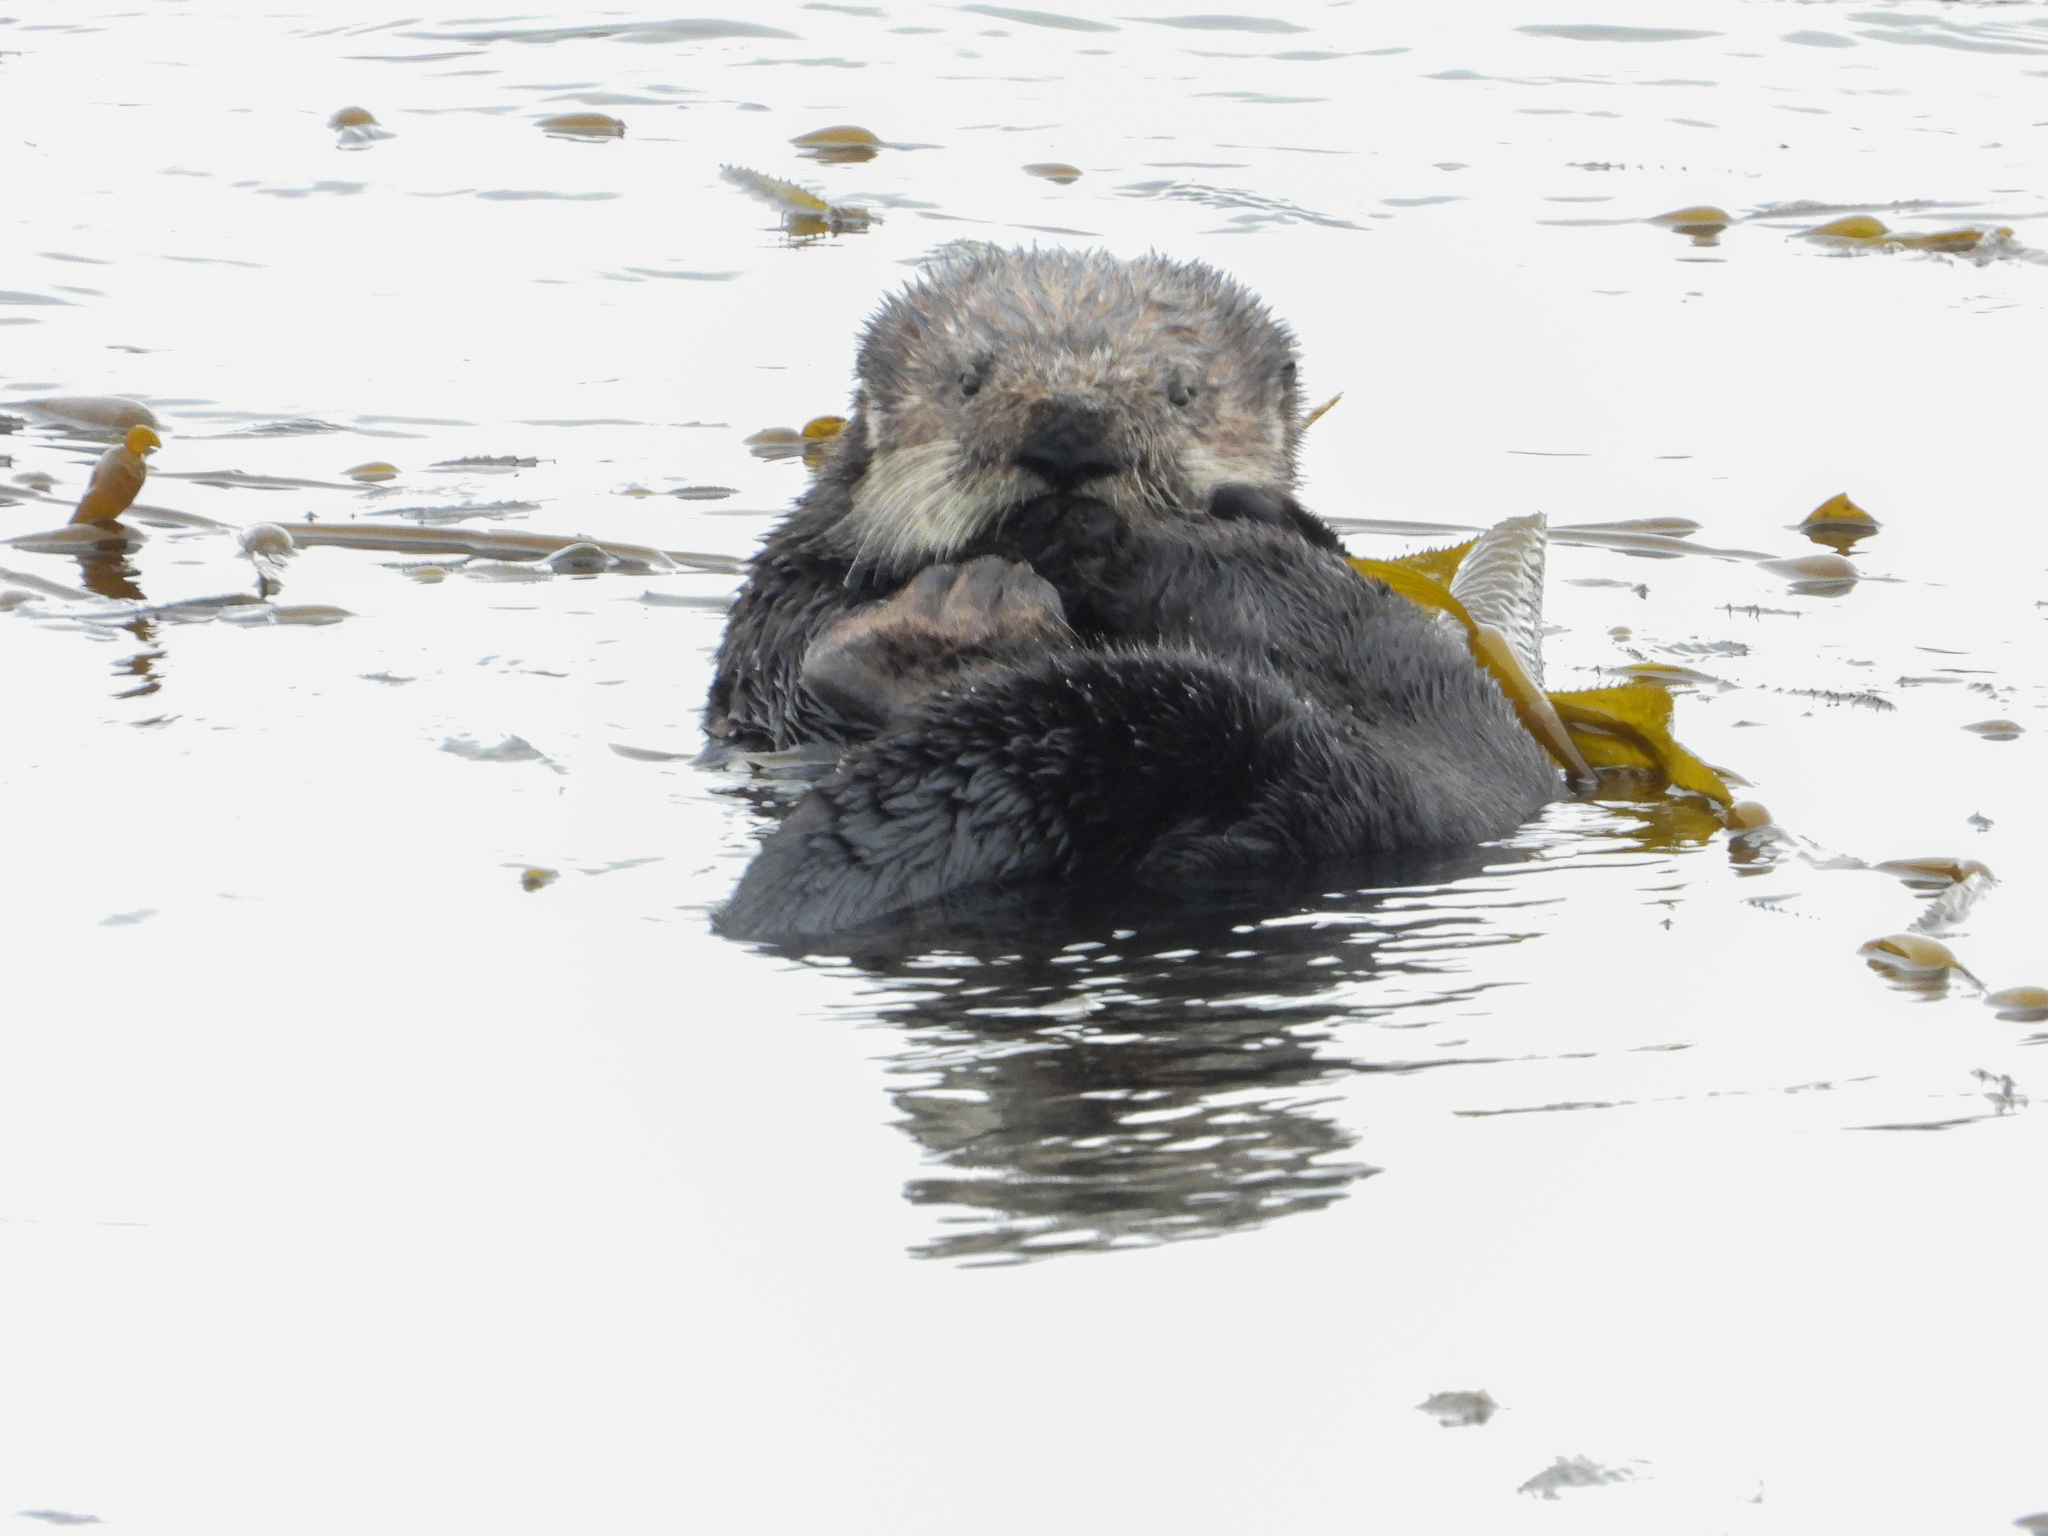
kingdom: Animalia
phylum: Chordata
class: Mammalia
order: Carnivora
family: Mustelidae
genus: Enhydra
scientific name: Enhydra lutris
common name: Sea otter
